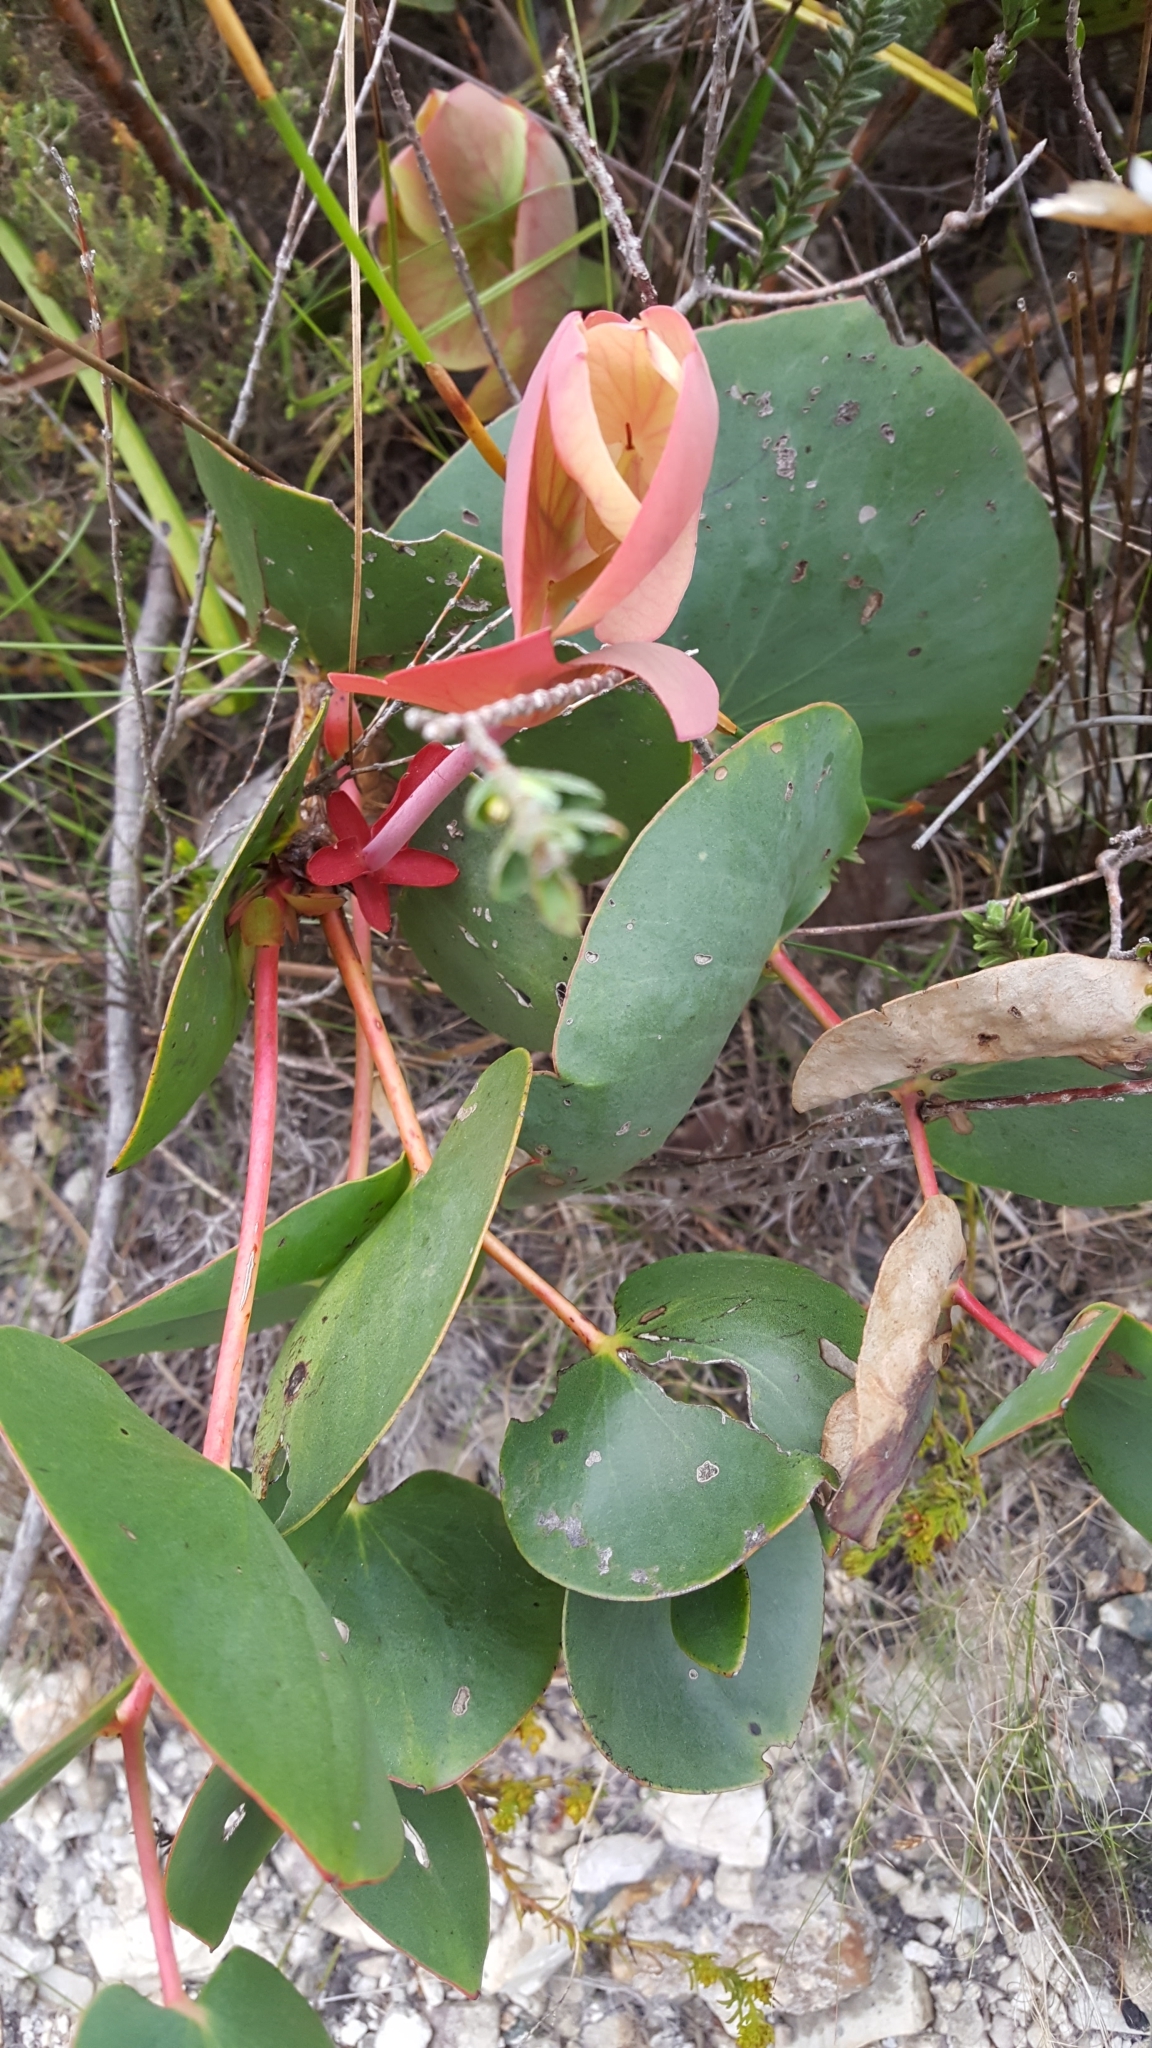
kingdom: Plantae
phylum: Tracheophyta
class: Magnoliopsida
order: Proteales
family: Proteaceae
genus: Protea
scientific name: Protea cordata
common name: Heart-leaf sugarbush
